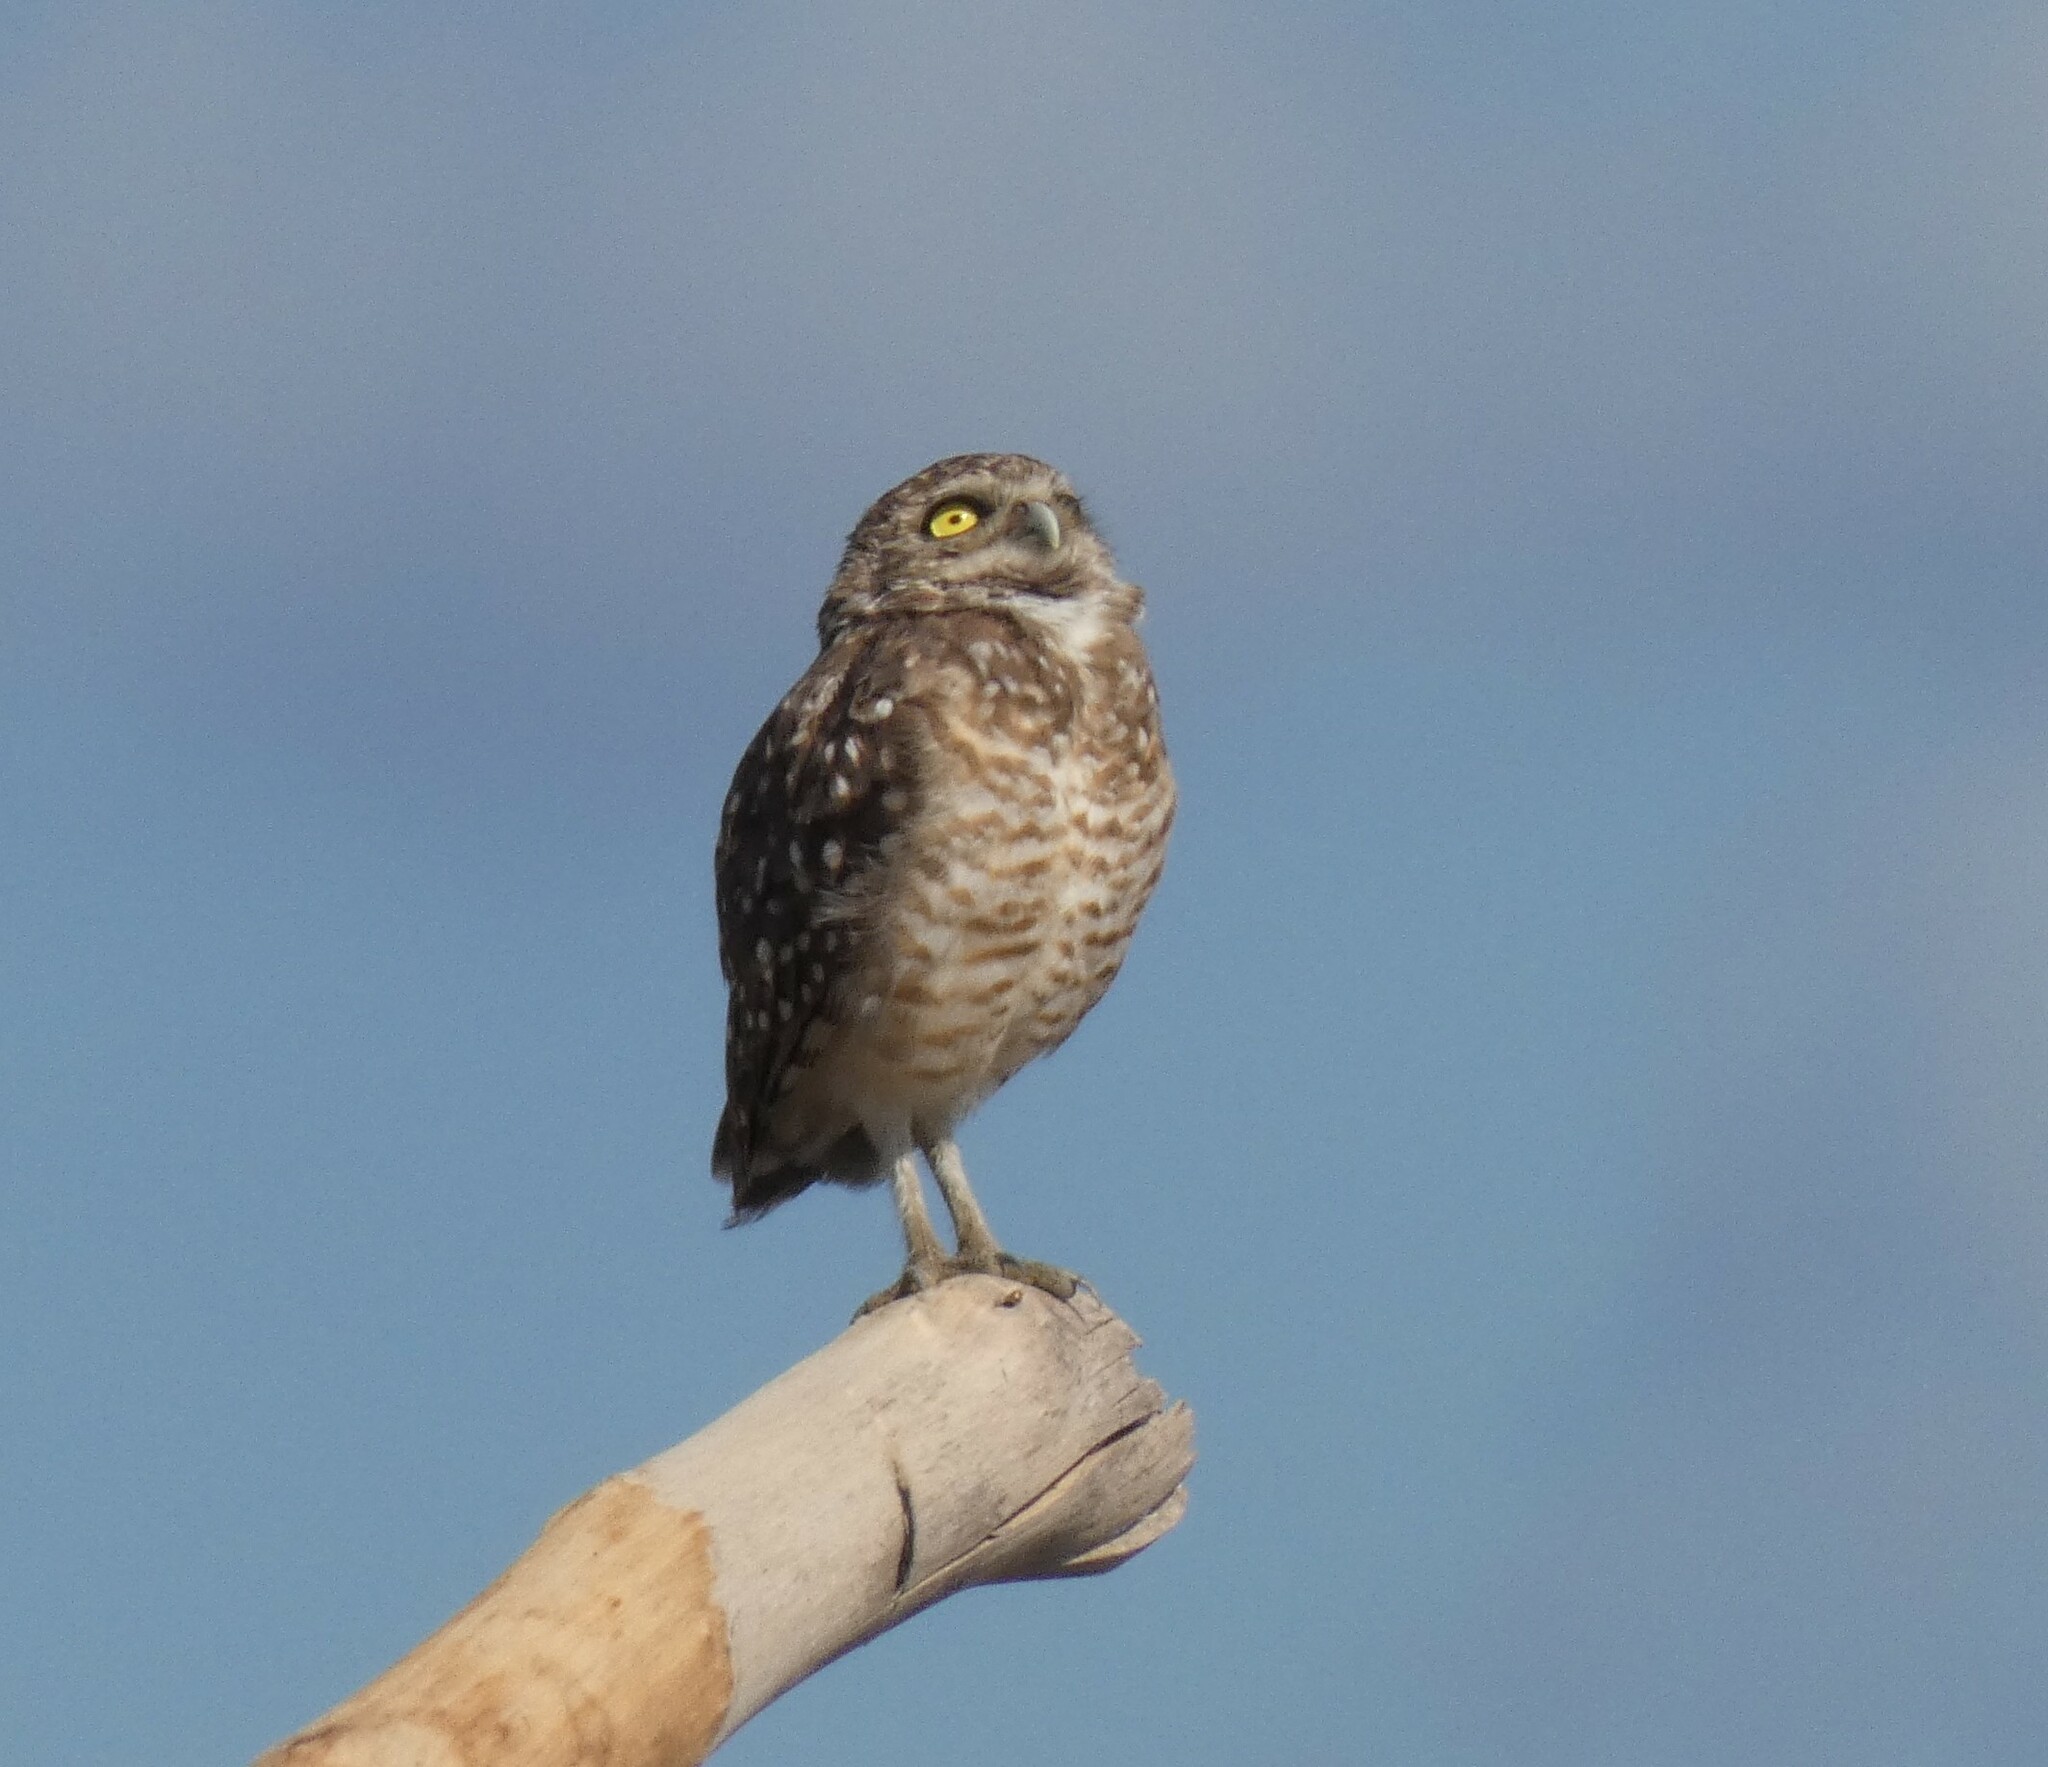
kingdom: Animalia
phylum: Chordata
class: Aves
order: Strigiformes
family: Strigidae
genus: Athene
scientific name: Athene cunicularia
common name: Burrowing owl
